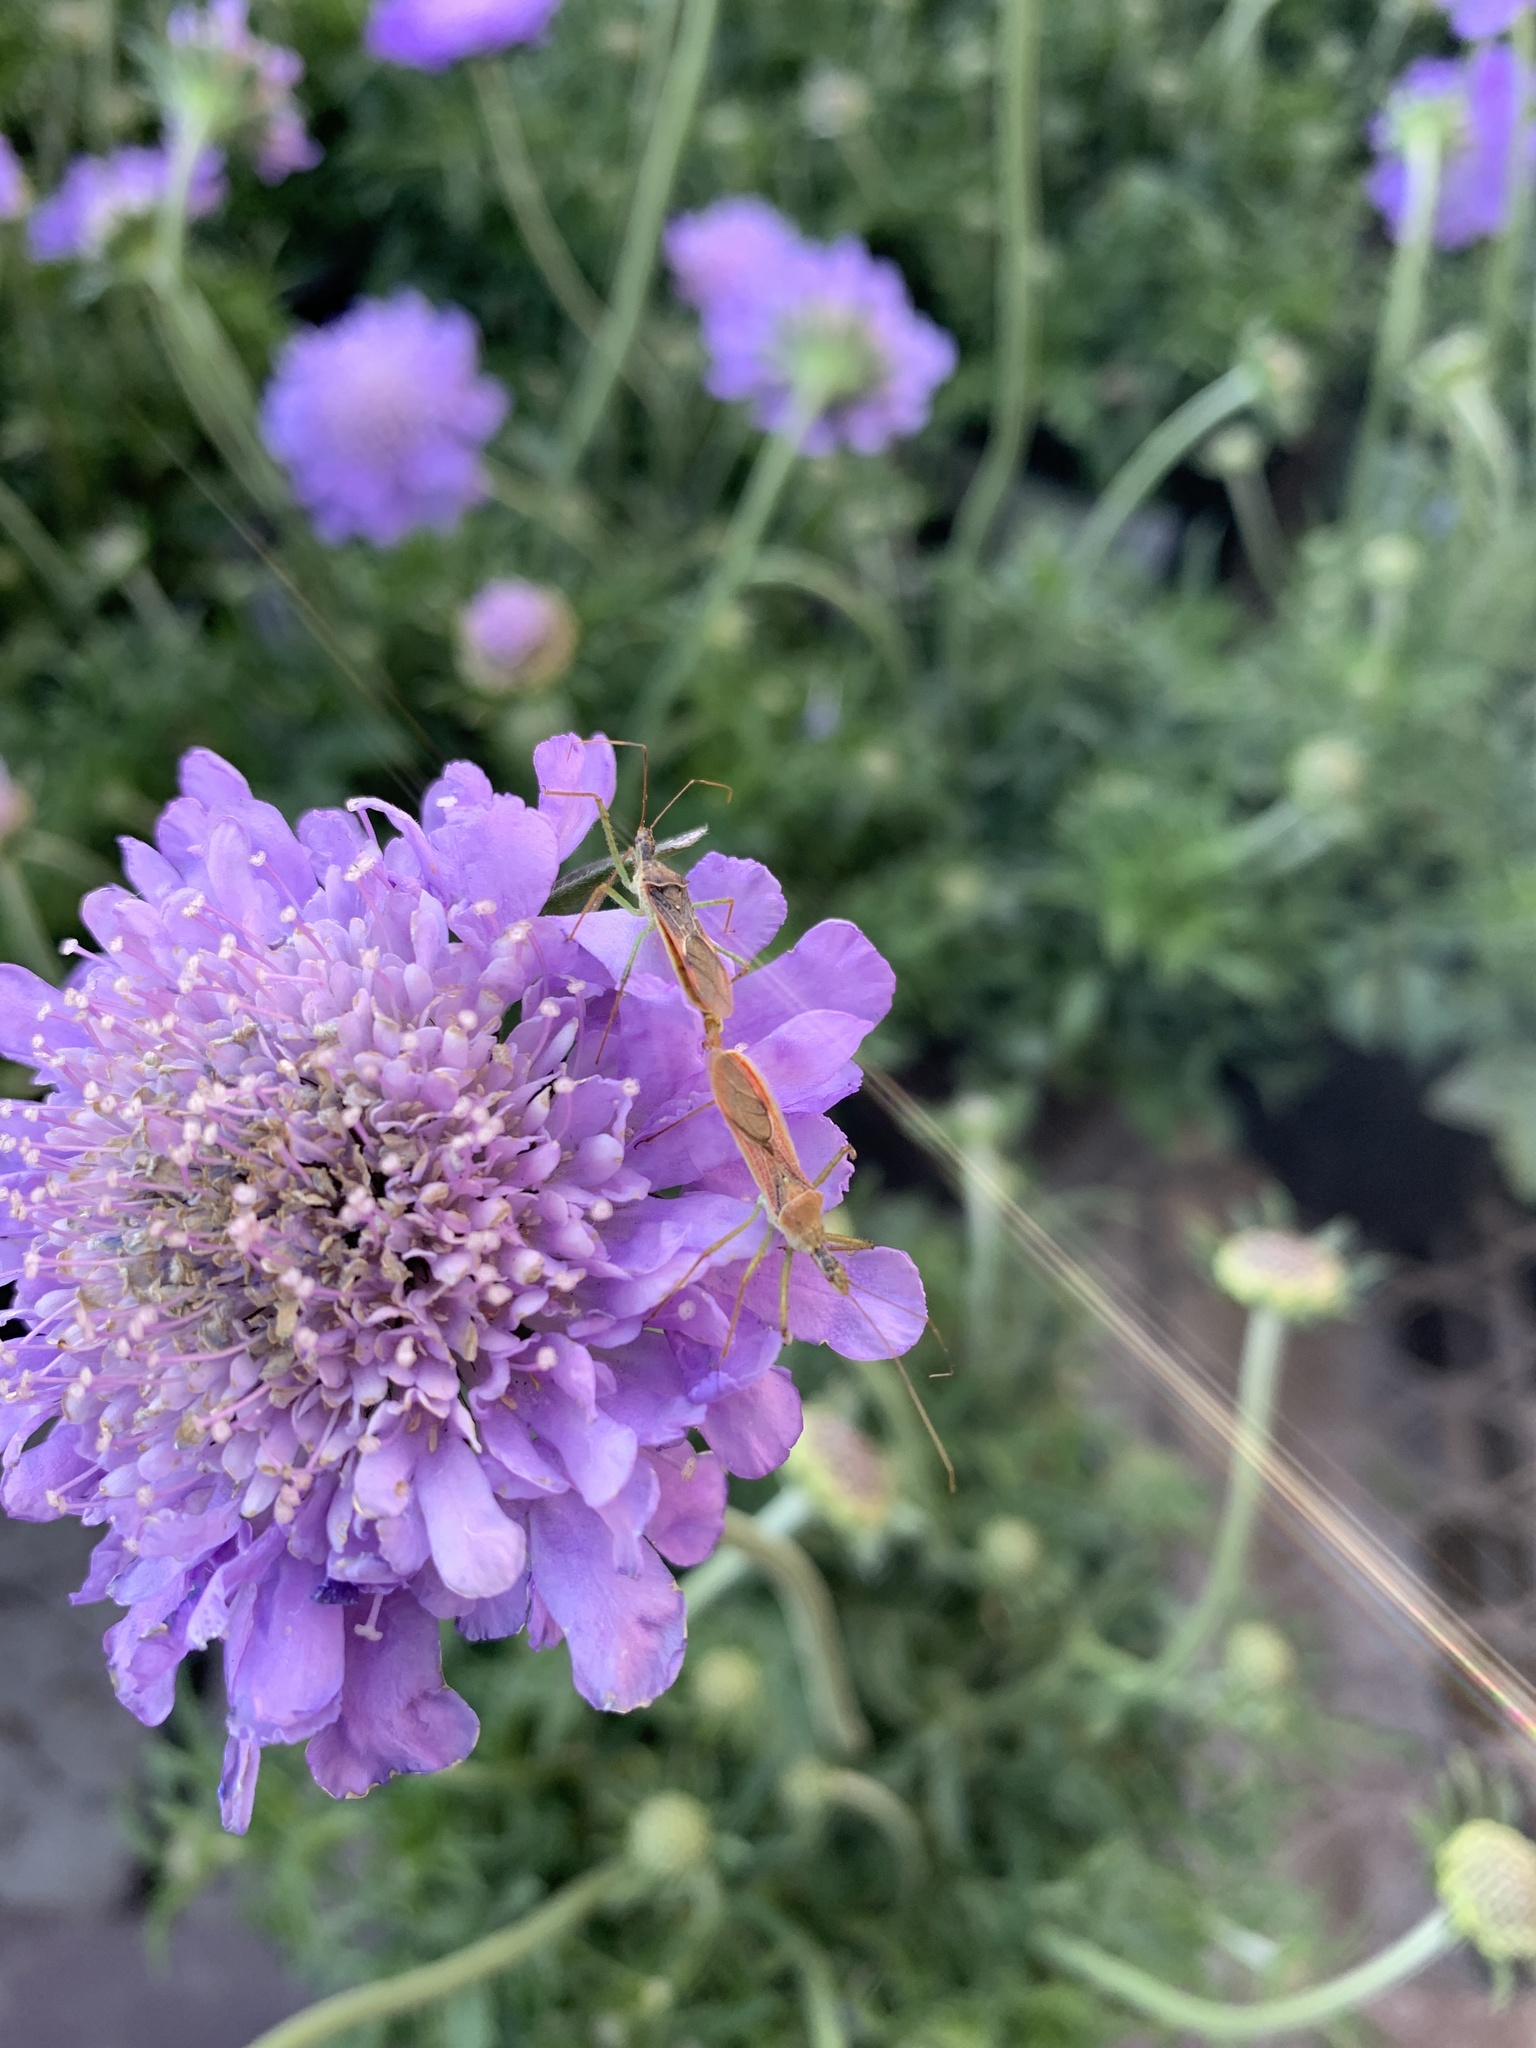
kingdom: Animalia
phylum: Arthropoda
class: Insecta
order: Hemiptera
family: Reduviidae
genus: Zelus
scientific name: Zelus renardii
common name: Assassin bug
